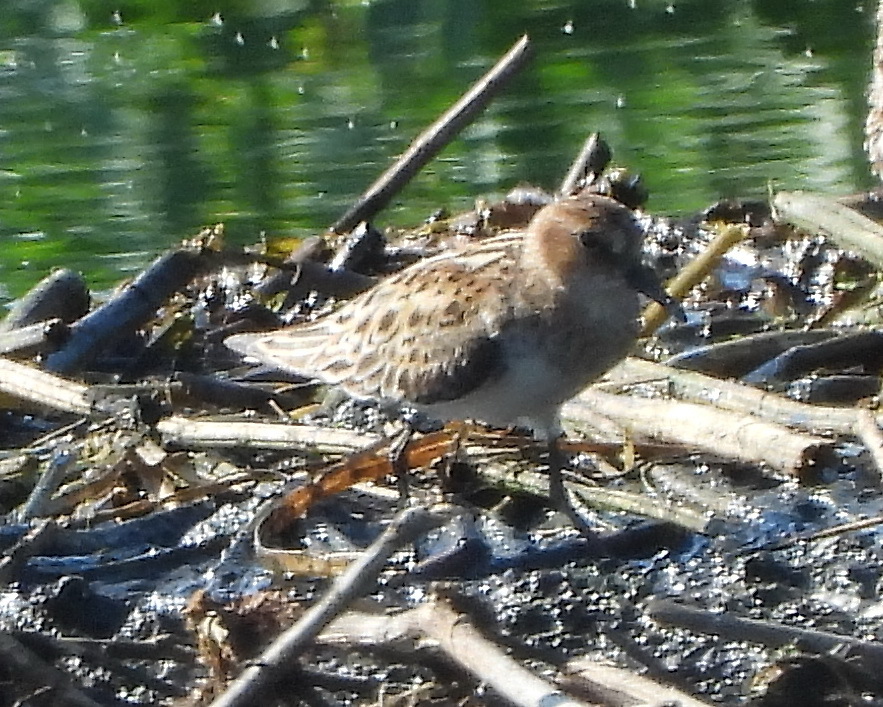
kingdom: Animalia
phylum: Chordata
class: Aves
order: Charadriiformes
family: Scolopacidae
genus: Calidris
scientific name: Calidris minuta
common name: Little stint
